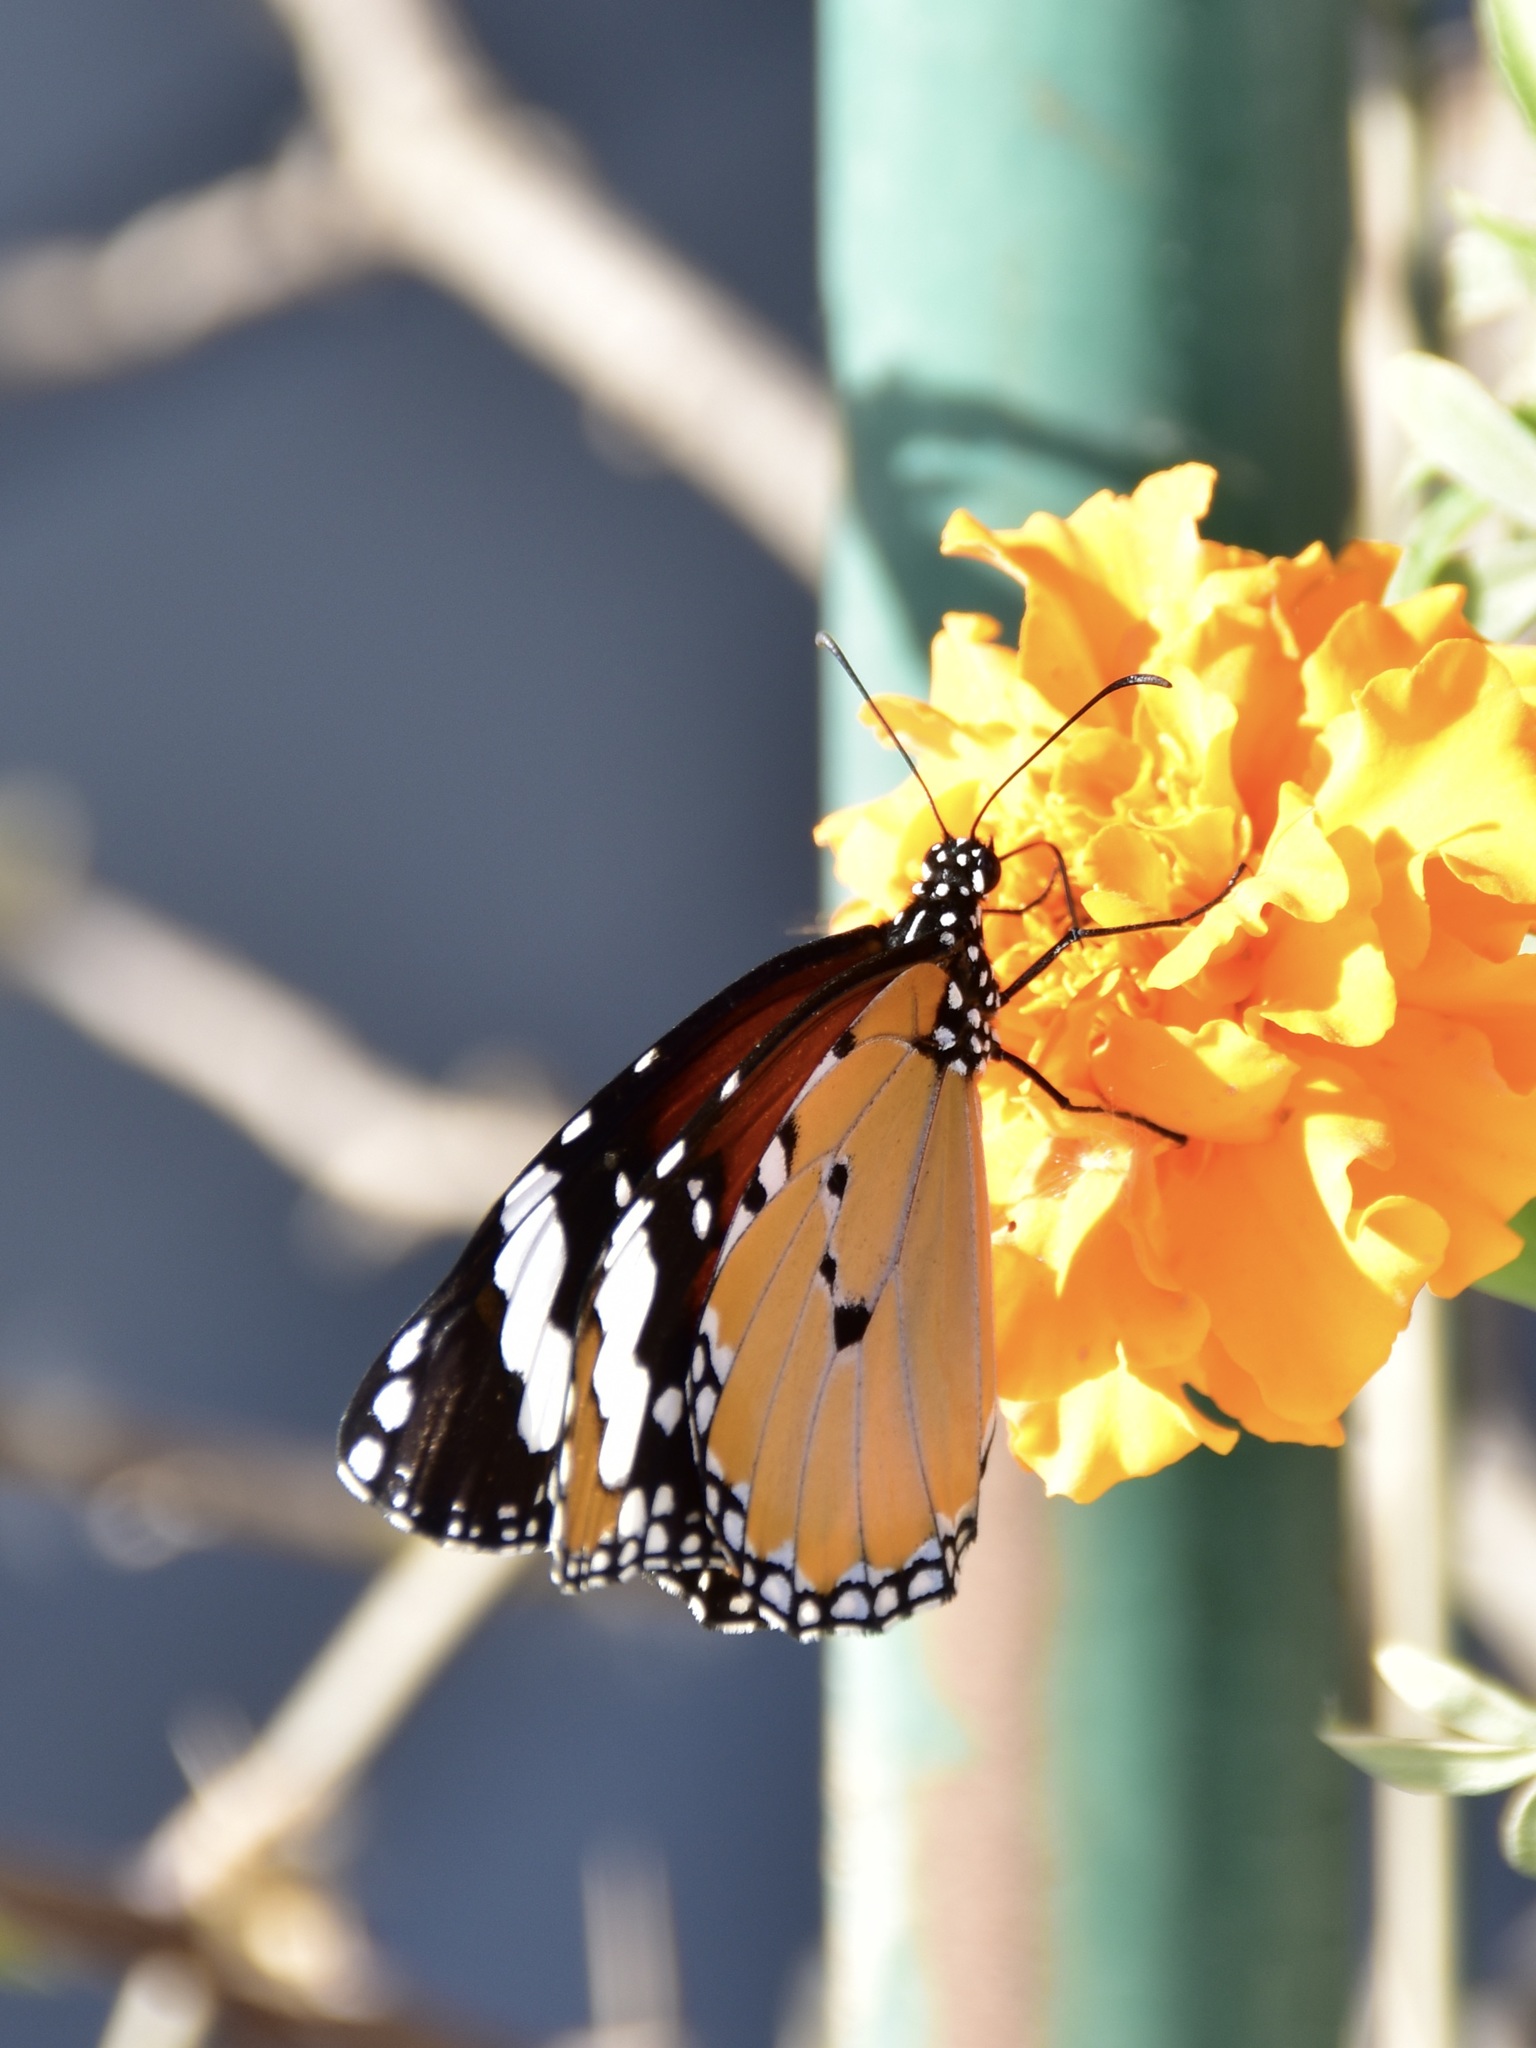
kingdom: Animalia
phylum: Arthropoda
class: Insecta
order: Lepidoptera
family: Nymphalidae
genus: Danaus
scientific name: Danaus chrysippus
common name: Plain tiger
